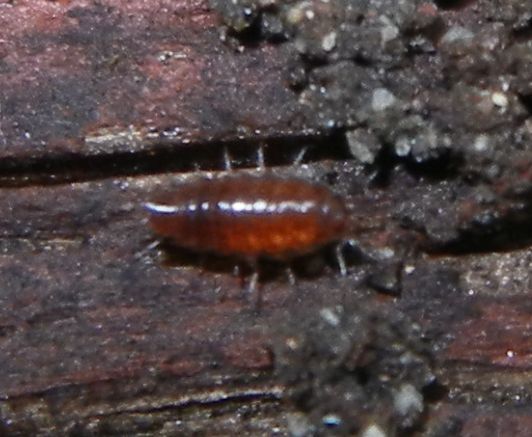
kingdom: Animalia
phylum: Arthropoda
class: Malacostraca
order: Isopoda
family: Trichoniscidae
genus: Trichoniscus
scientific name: Trichoniscus
